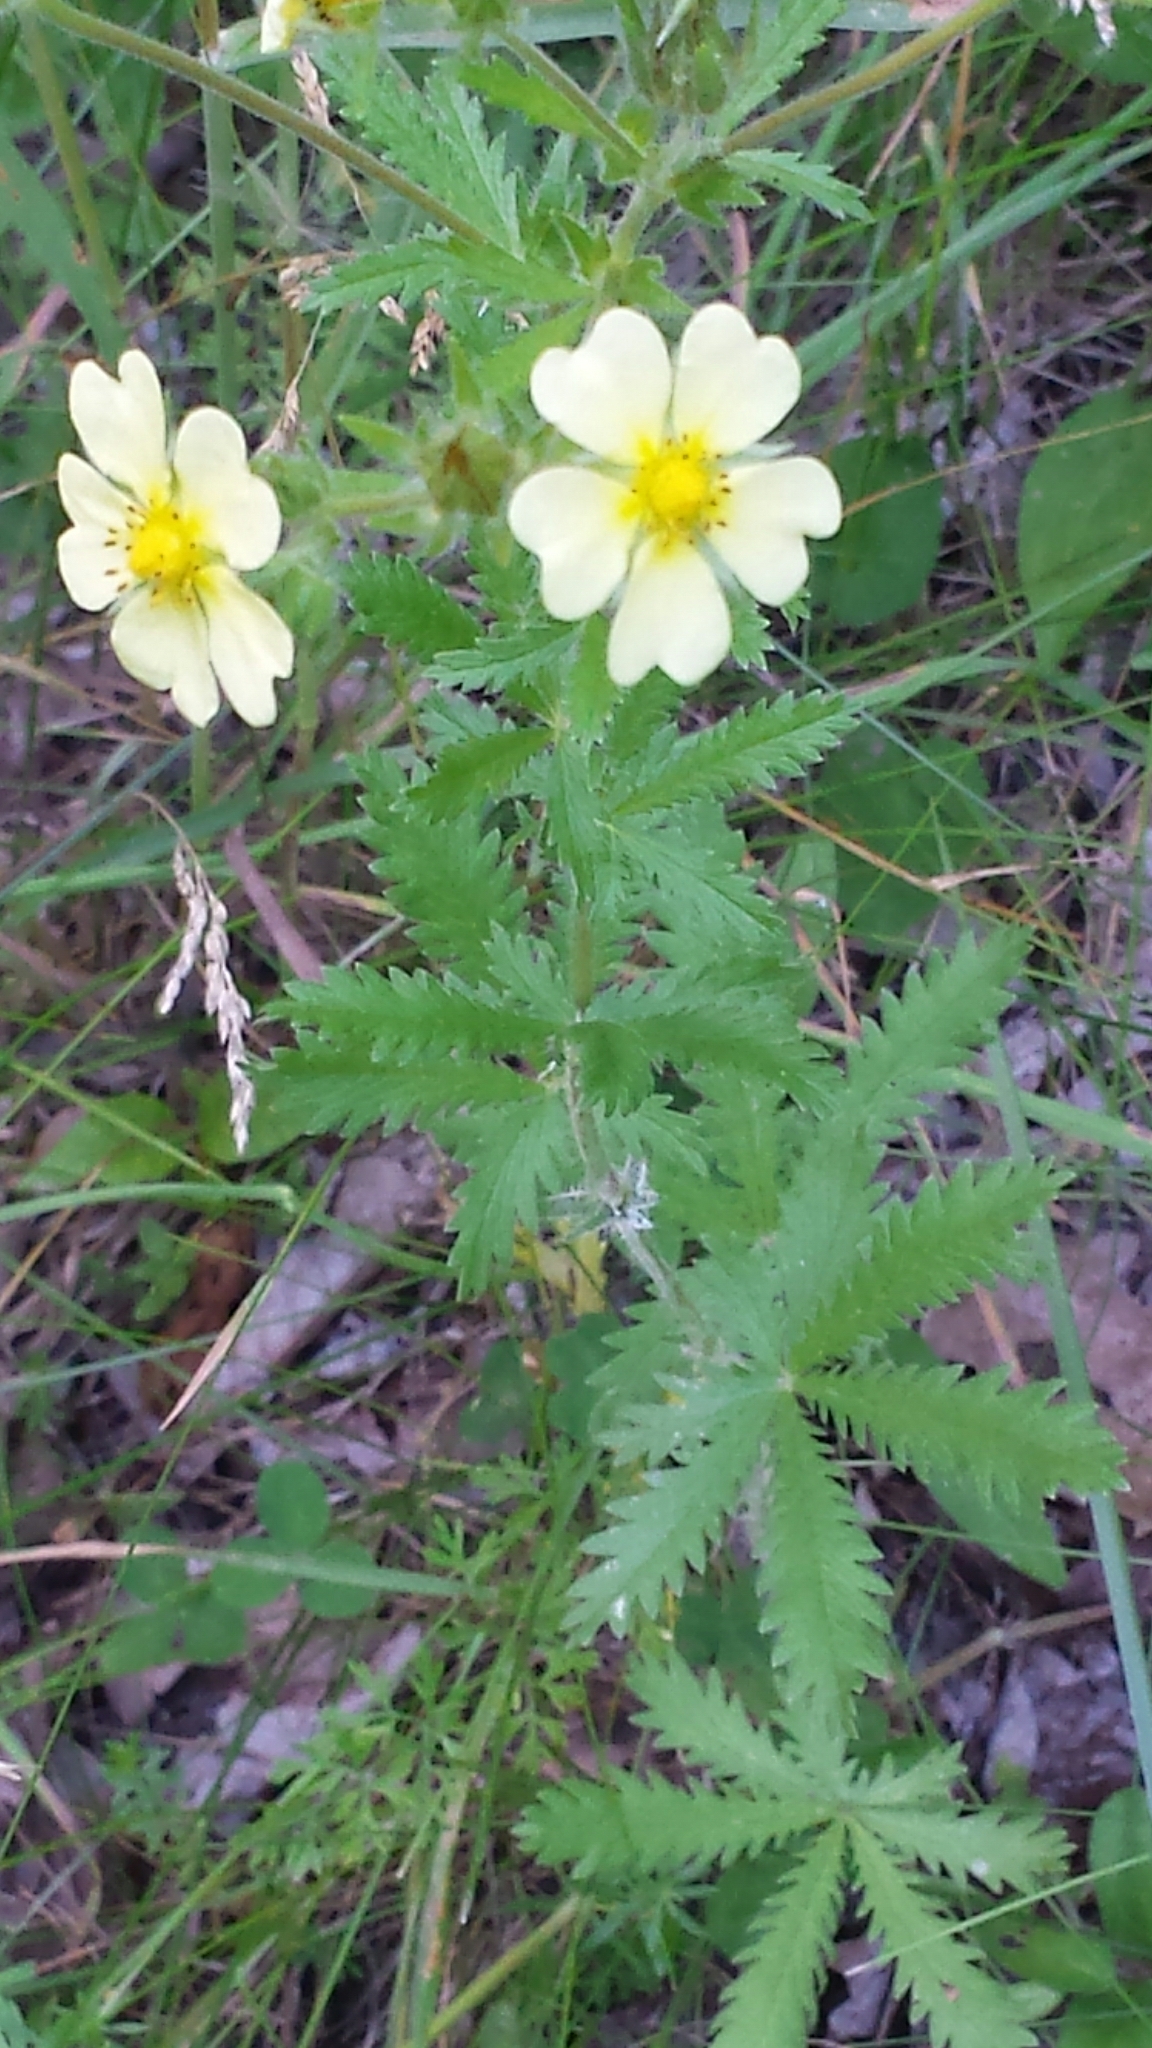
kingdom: Plantae
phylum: Tracheophyta
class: Magnoliopsida
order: Rosales
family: Rosaceae
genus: Potentilla
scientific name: Potentilla recta
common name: Sulphur cinquefoil
